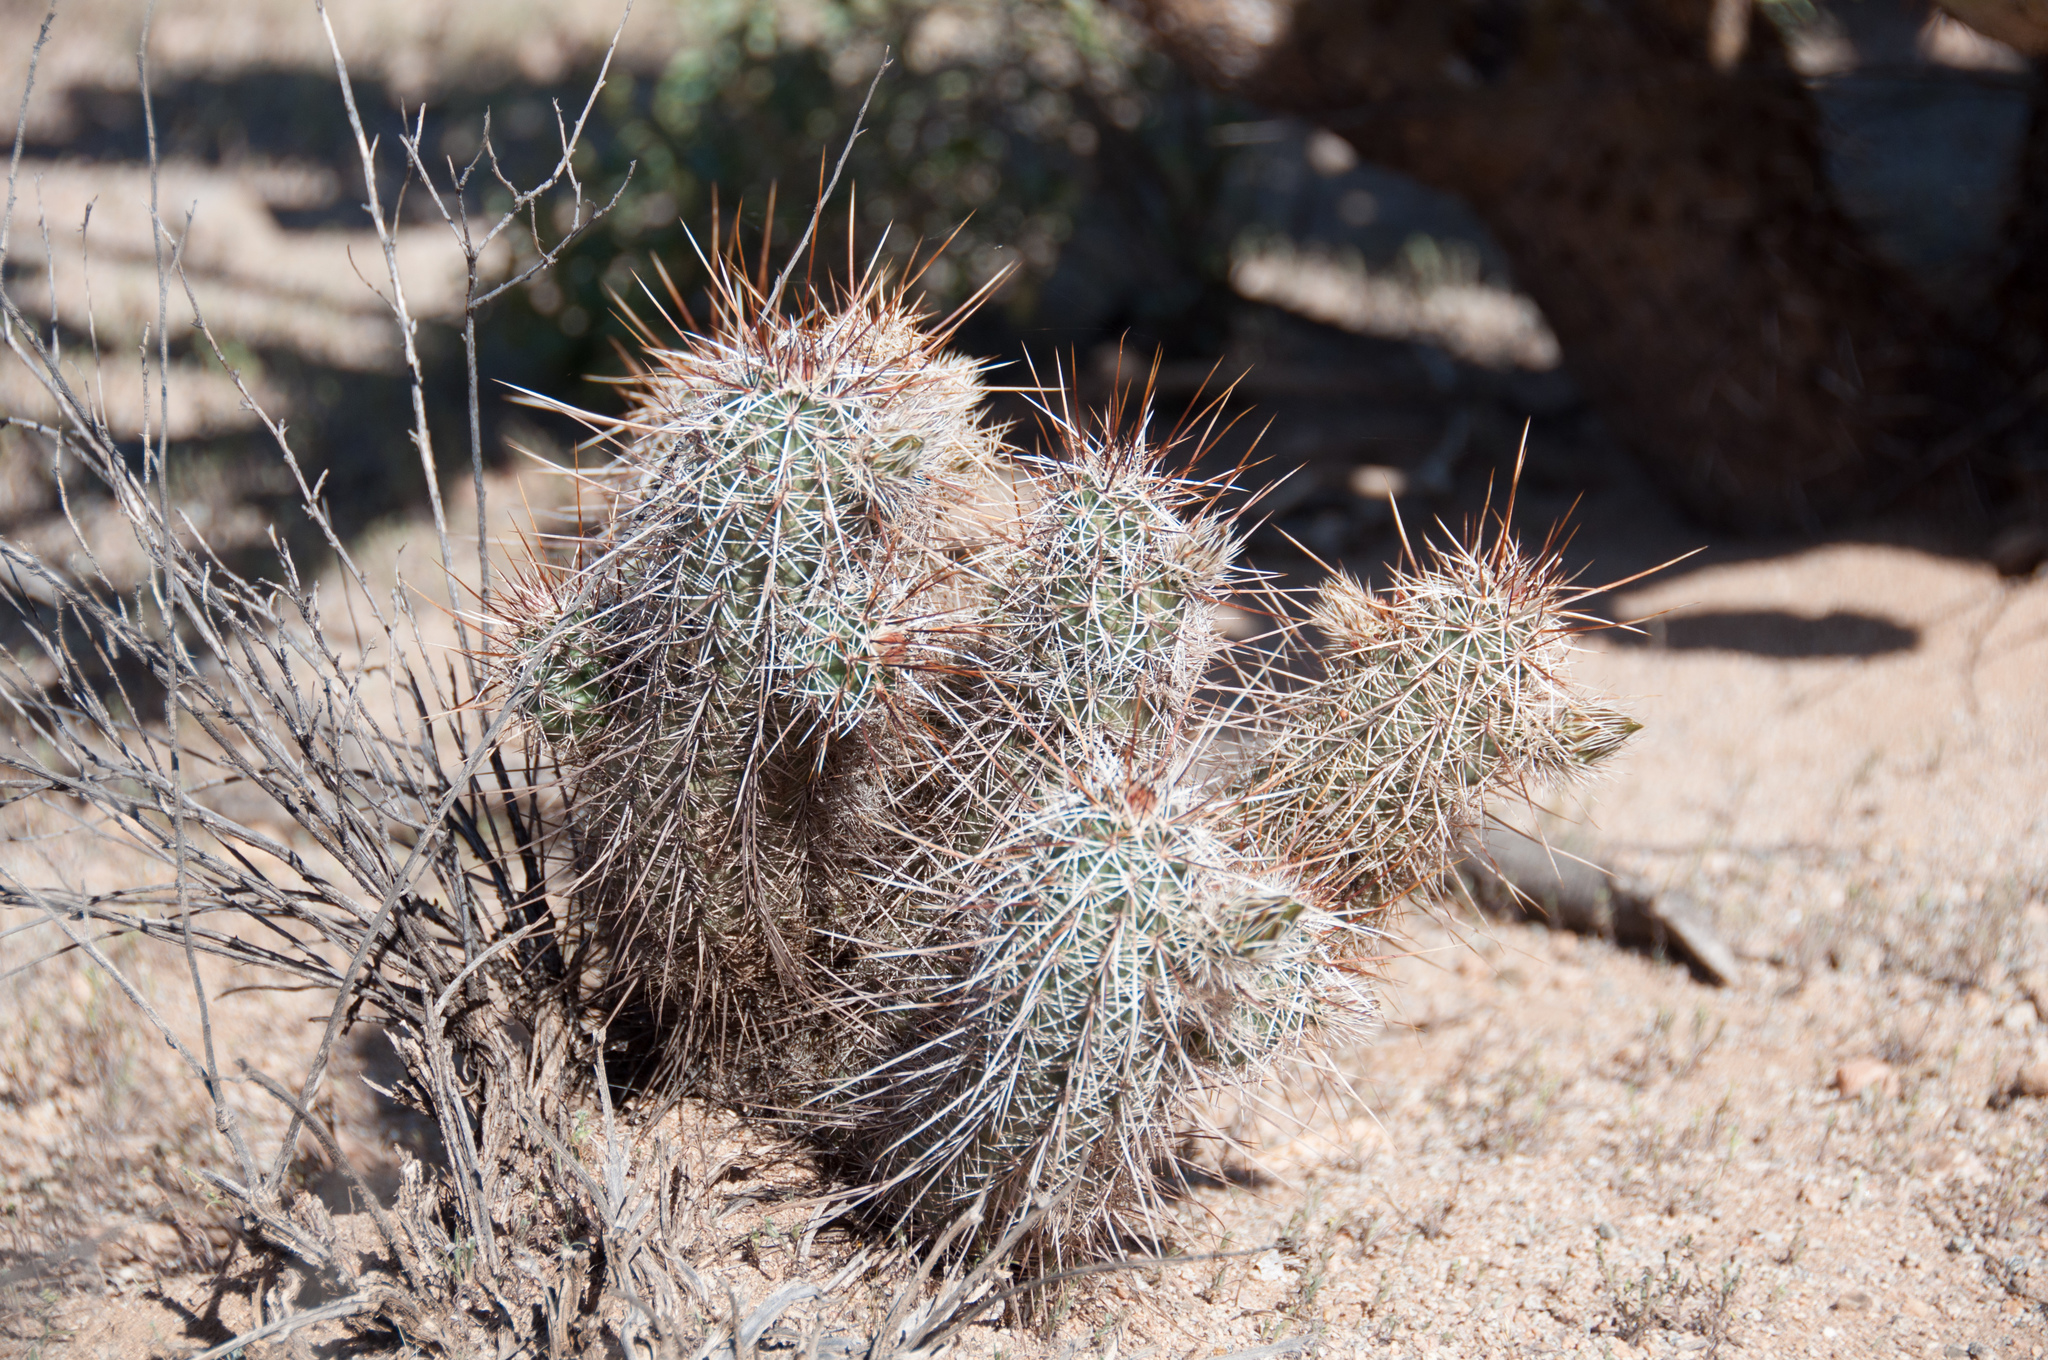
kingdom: Plantae
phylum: Tracheophyta
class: Magnoliopsida
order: Caryophyllales
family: Cactaceae
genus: Echinocereus
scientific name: Echinocereus fasciculatus
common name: Bundle hedgehog
